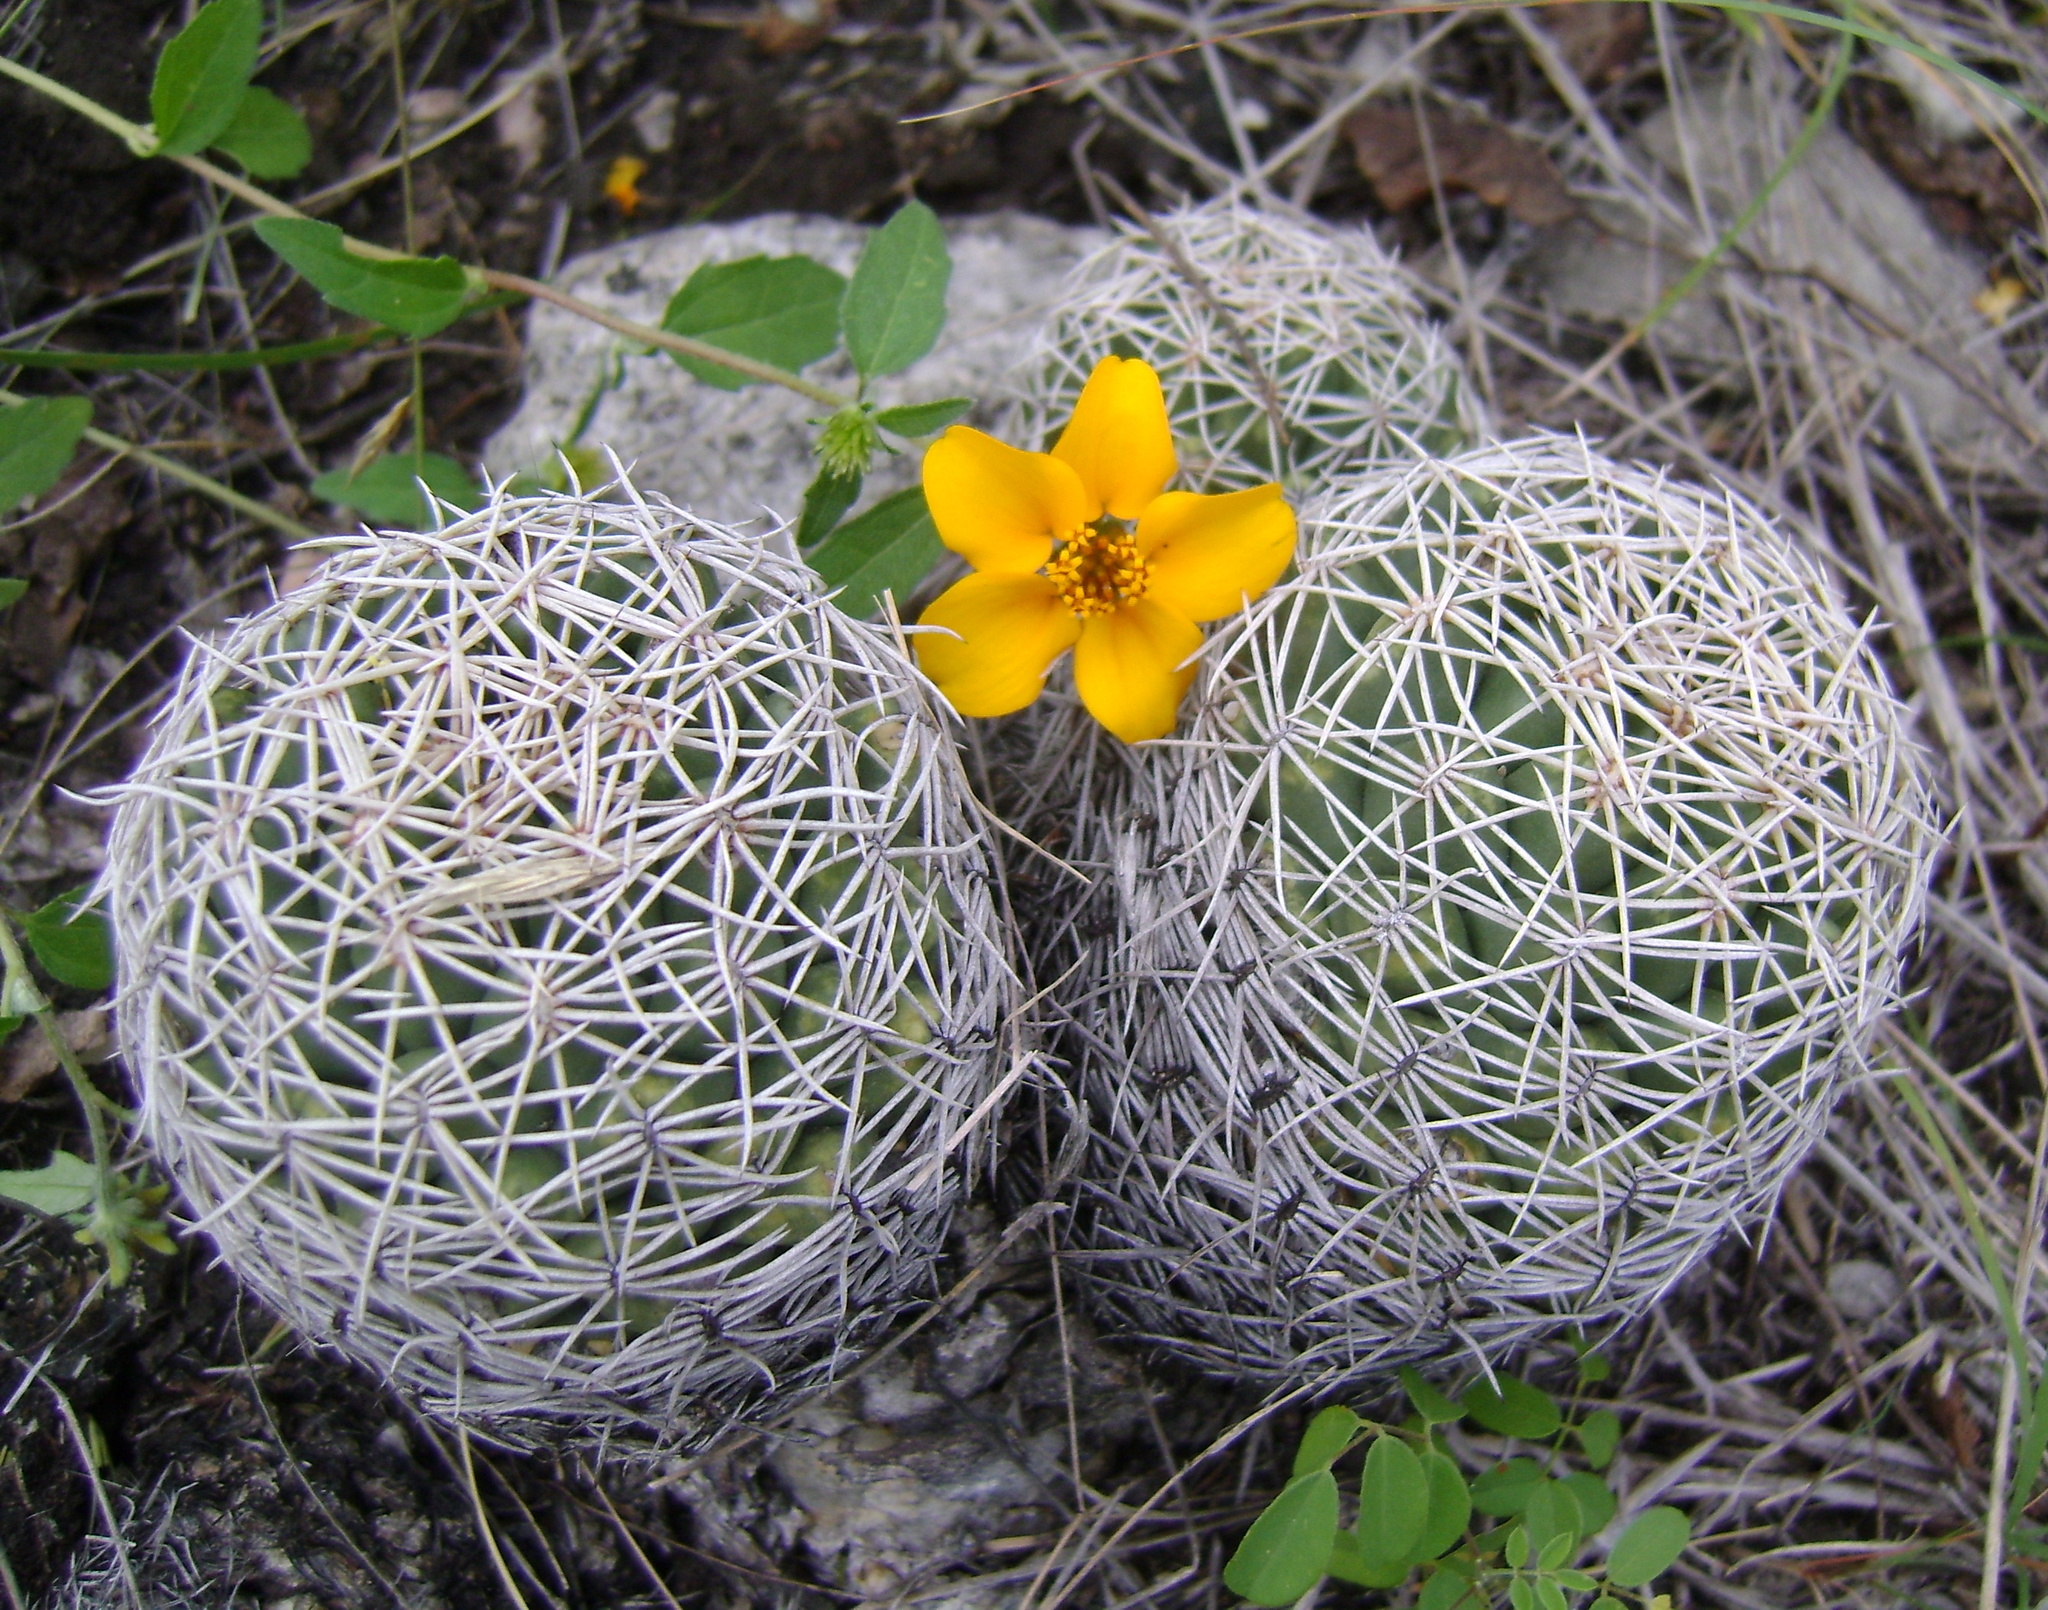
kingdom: Plantae
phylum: Tracheophyta
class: Magnoliopsida
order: Caryophyllales
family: Cactaceae
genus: Coryphantha
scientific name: Coryphantha pallida
